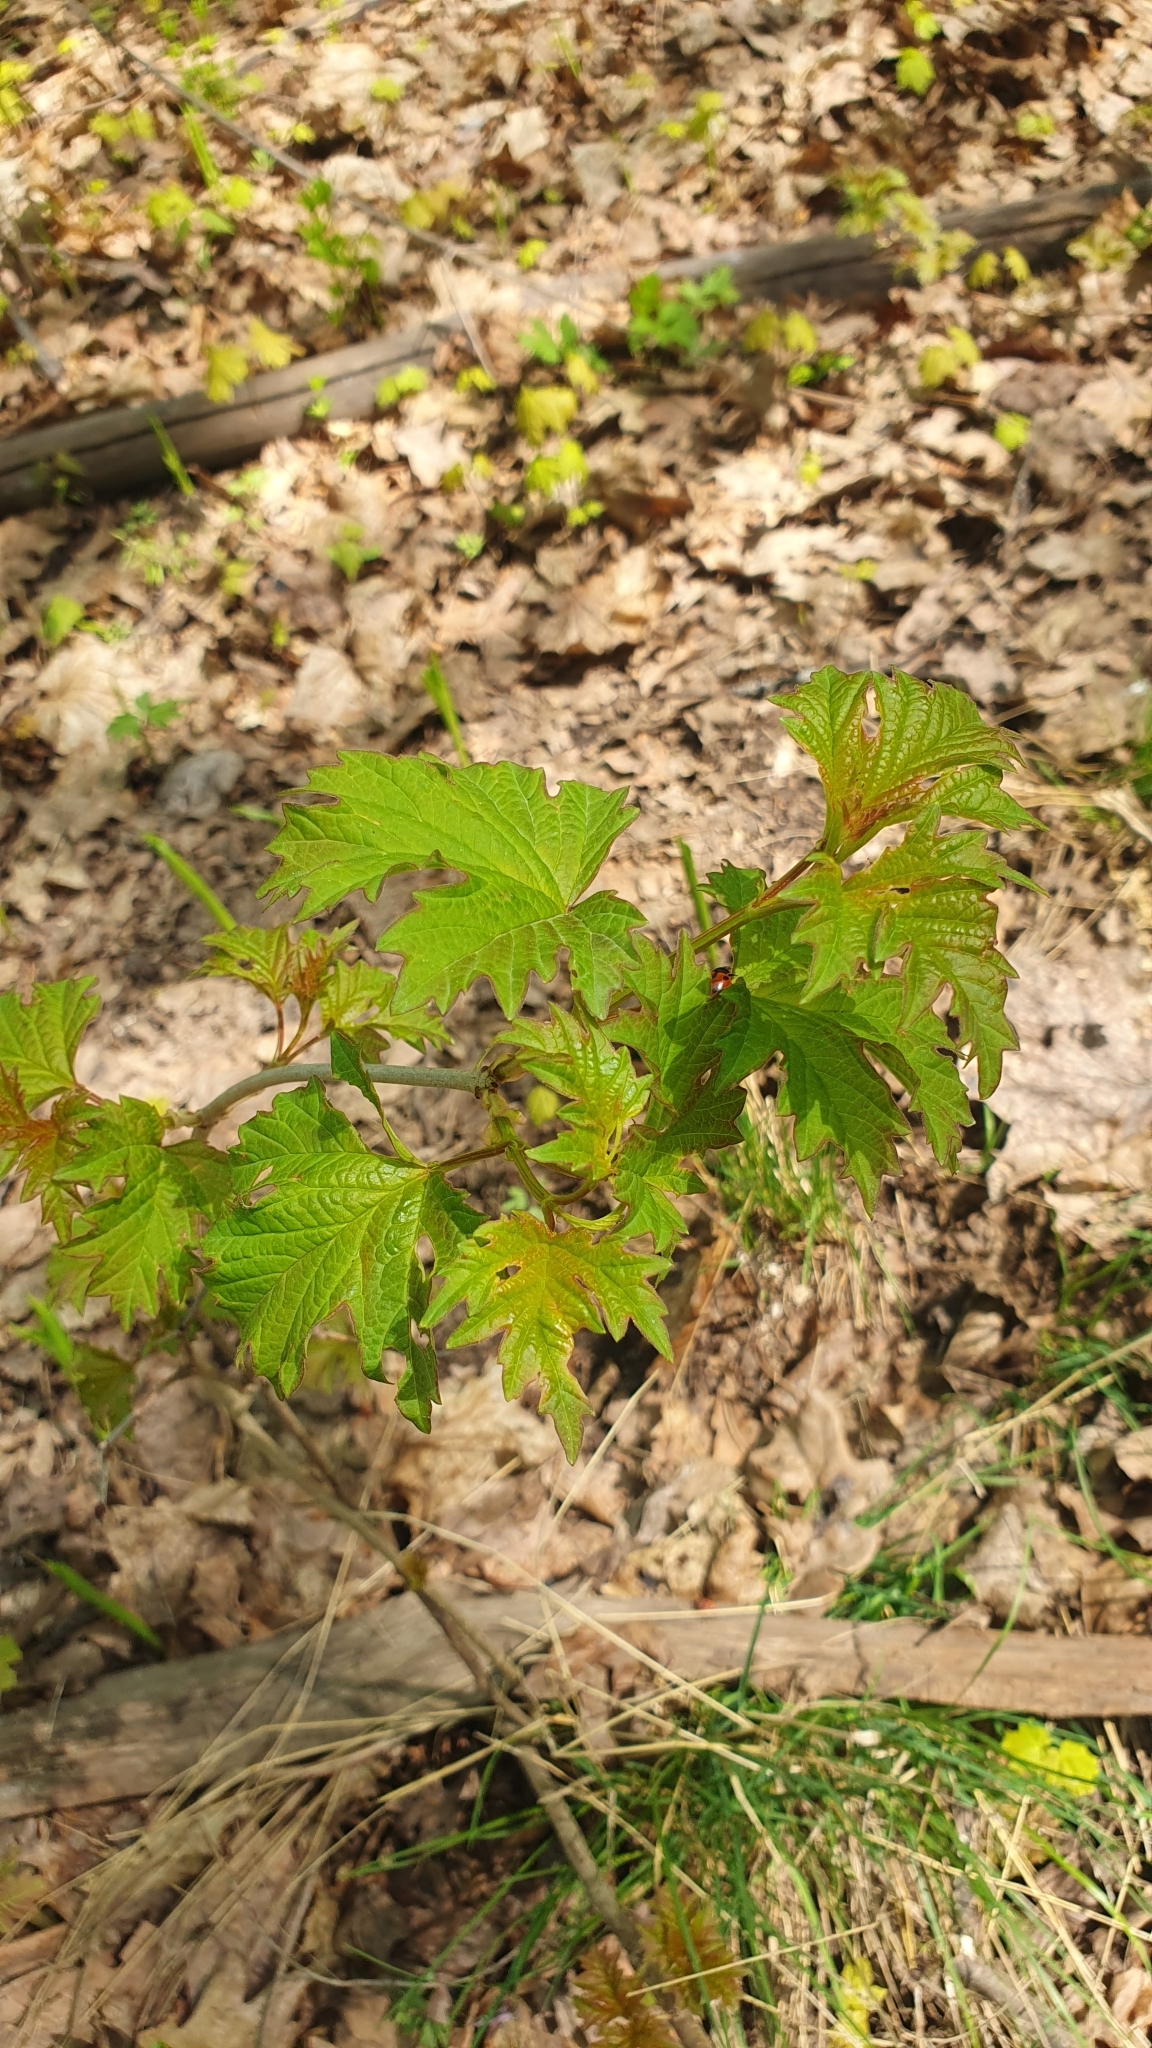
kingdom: Plantae
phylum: Tracheophyta
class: Magnoliopsida
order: Dipsacales
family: Viburnaceae
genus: Viburnum
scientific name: Viburnum opulus
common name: Guelder-rose
